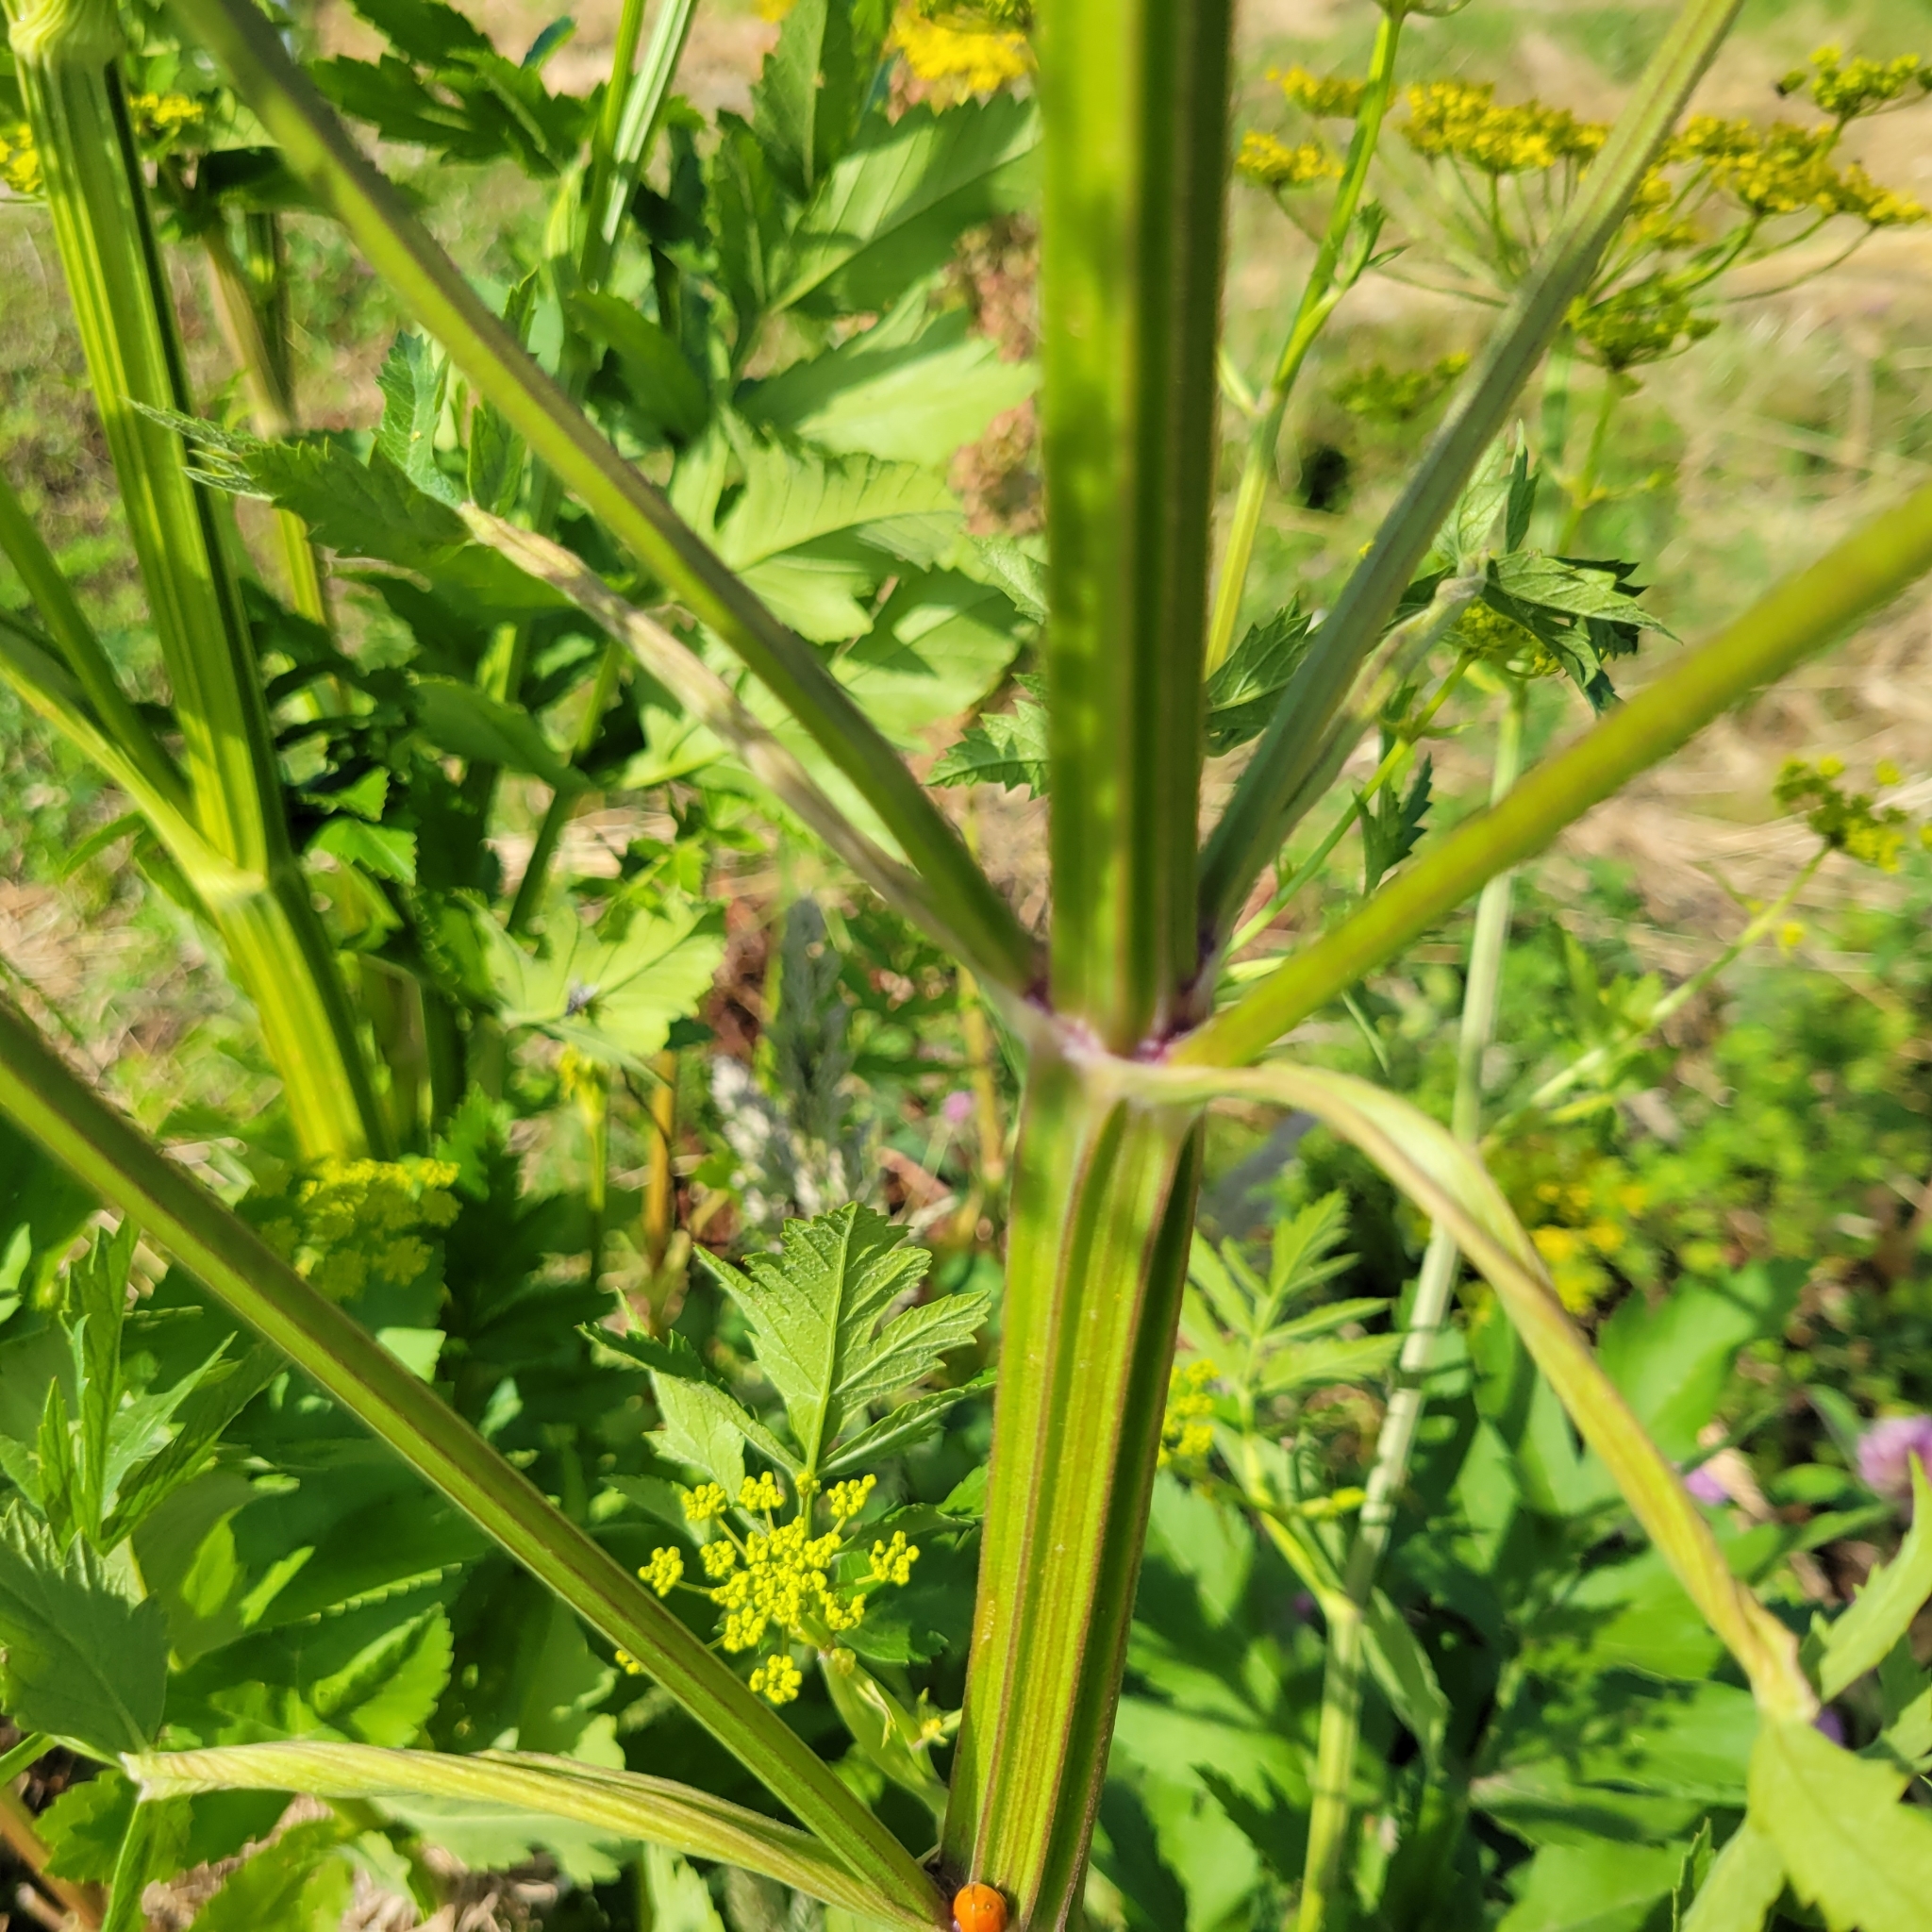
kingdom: Plantae
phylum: Tracheophyta
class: Magnoliopsida
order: Apiales
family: Apiaceae
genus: Pastinaca
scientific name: Pastinaca sativa
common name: Wild parsnip
